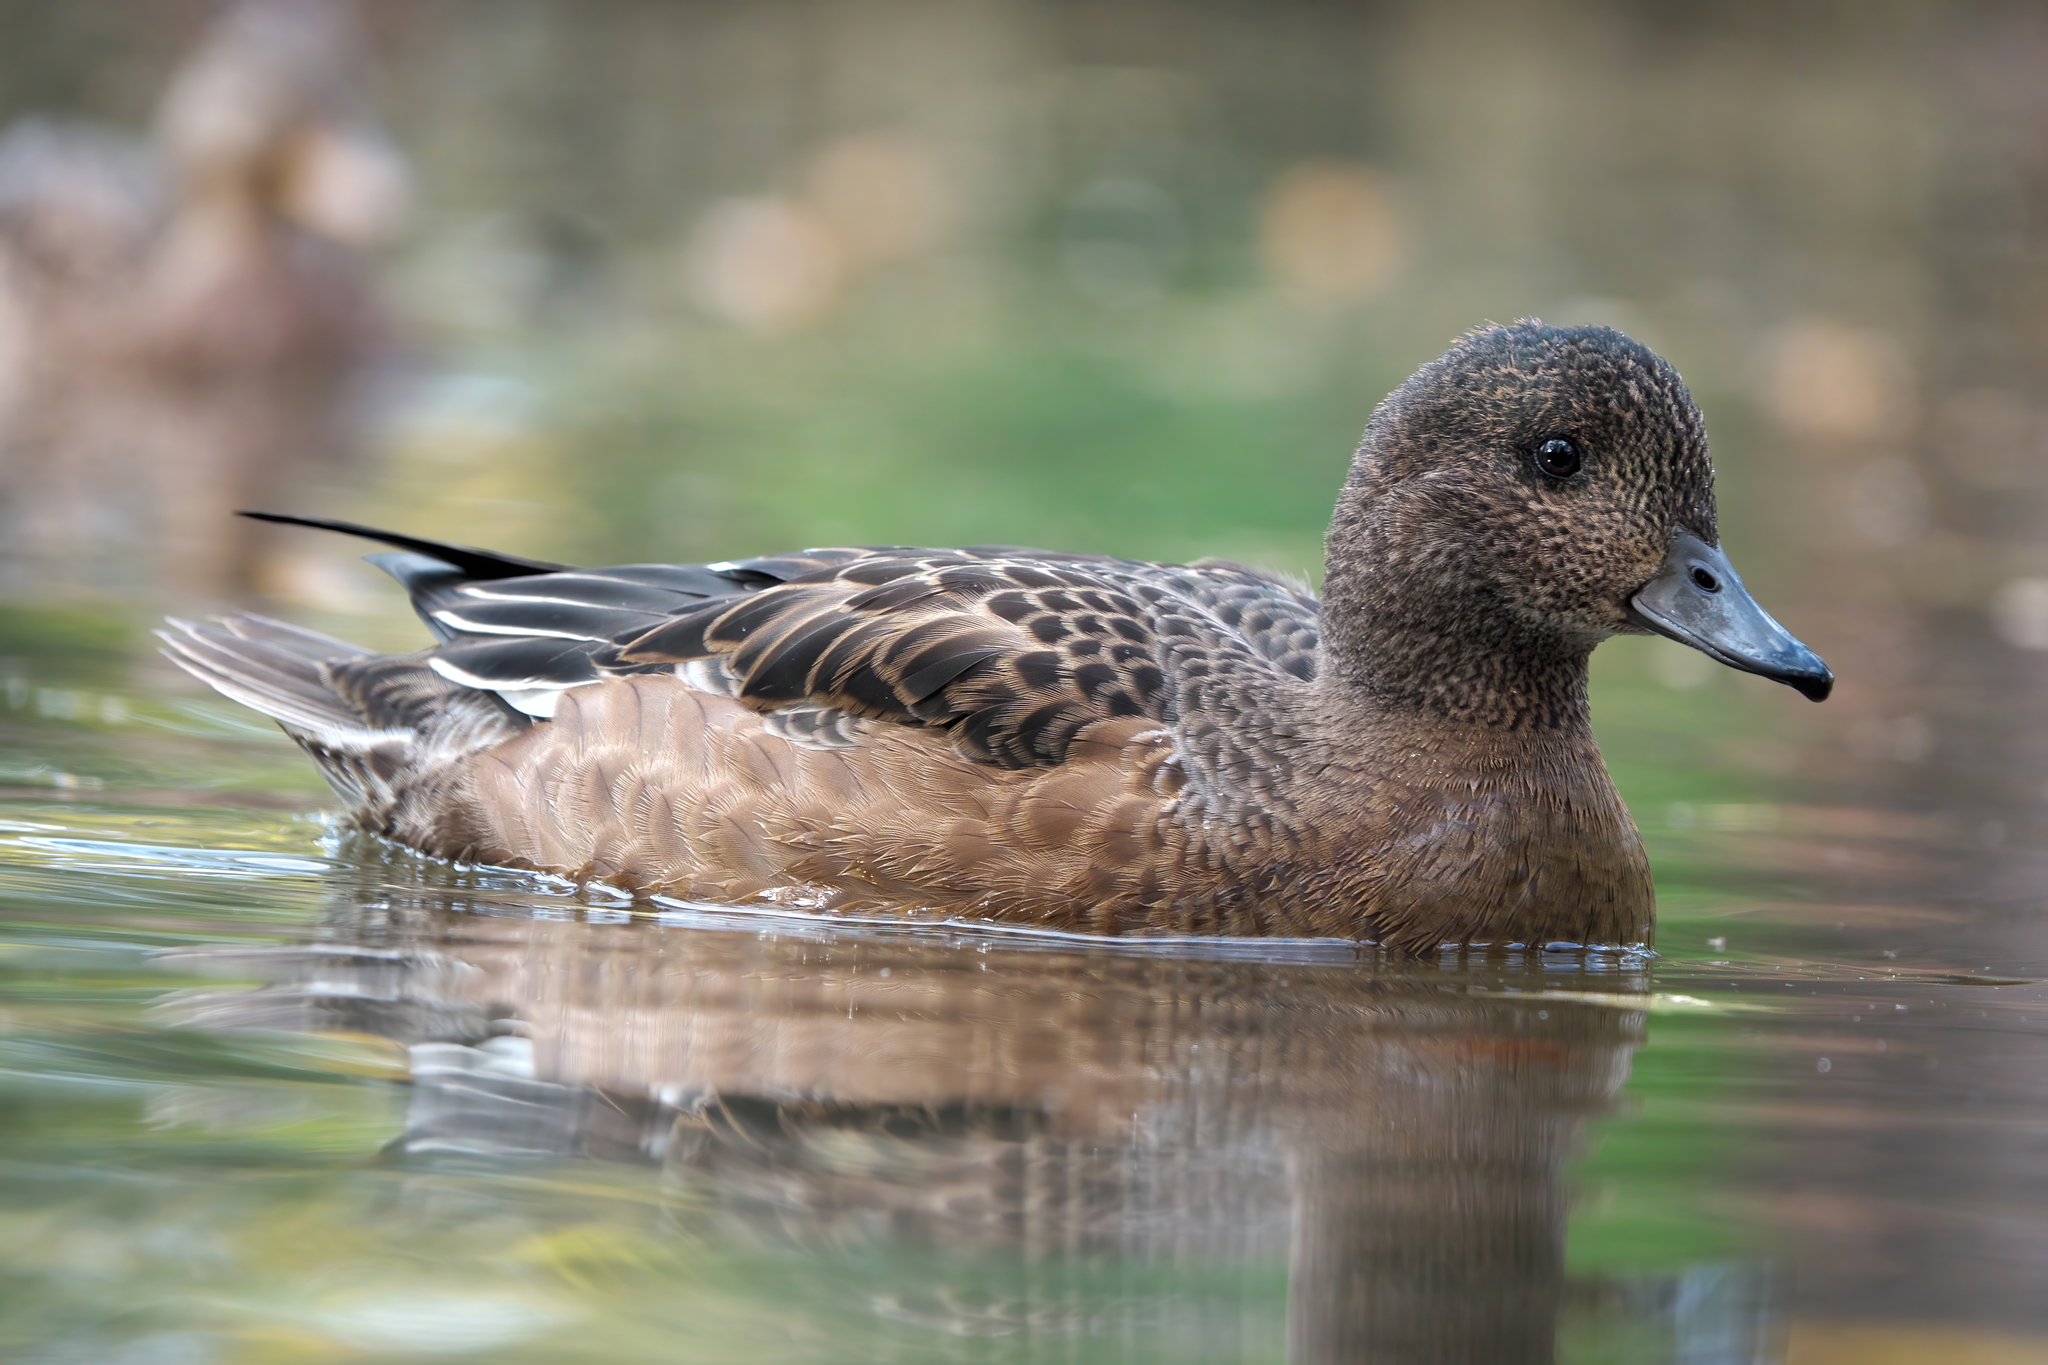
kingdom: Animalia
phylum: Chordata
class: Aves
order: Anseriformes
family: Anatidae
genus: Mareca
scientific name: Mareca penelope
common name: Eurasian wigeon
